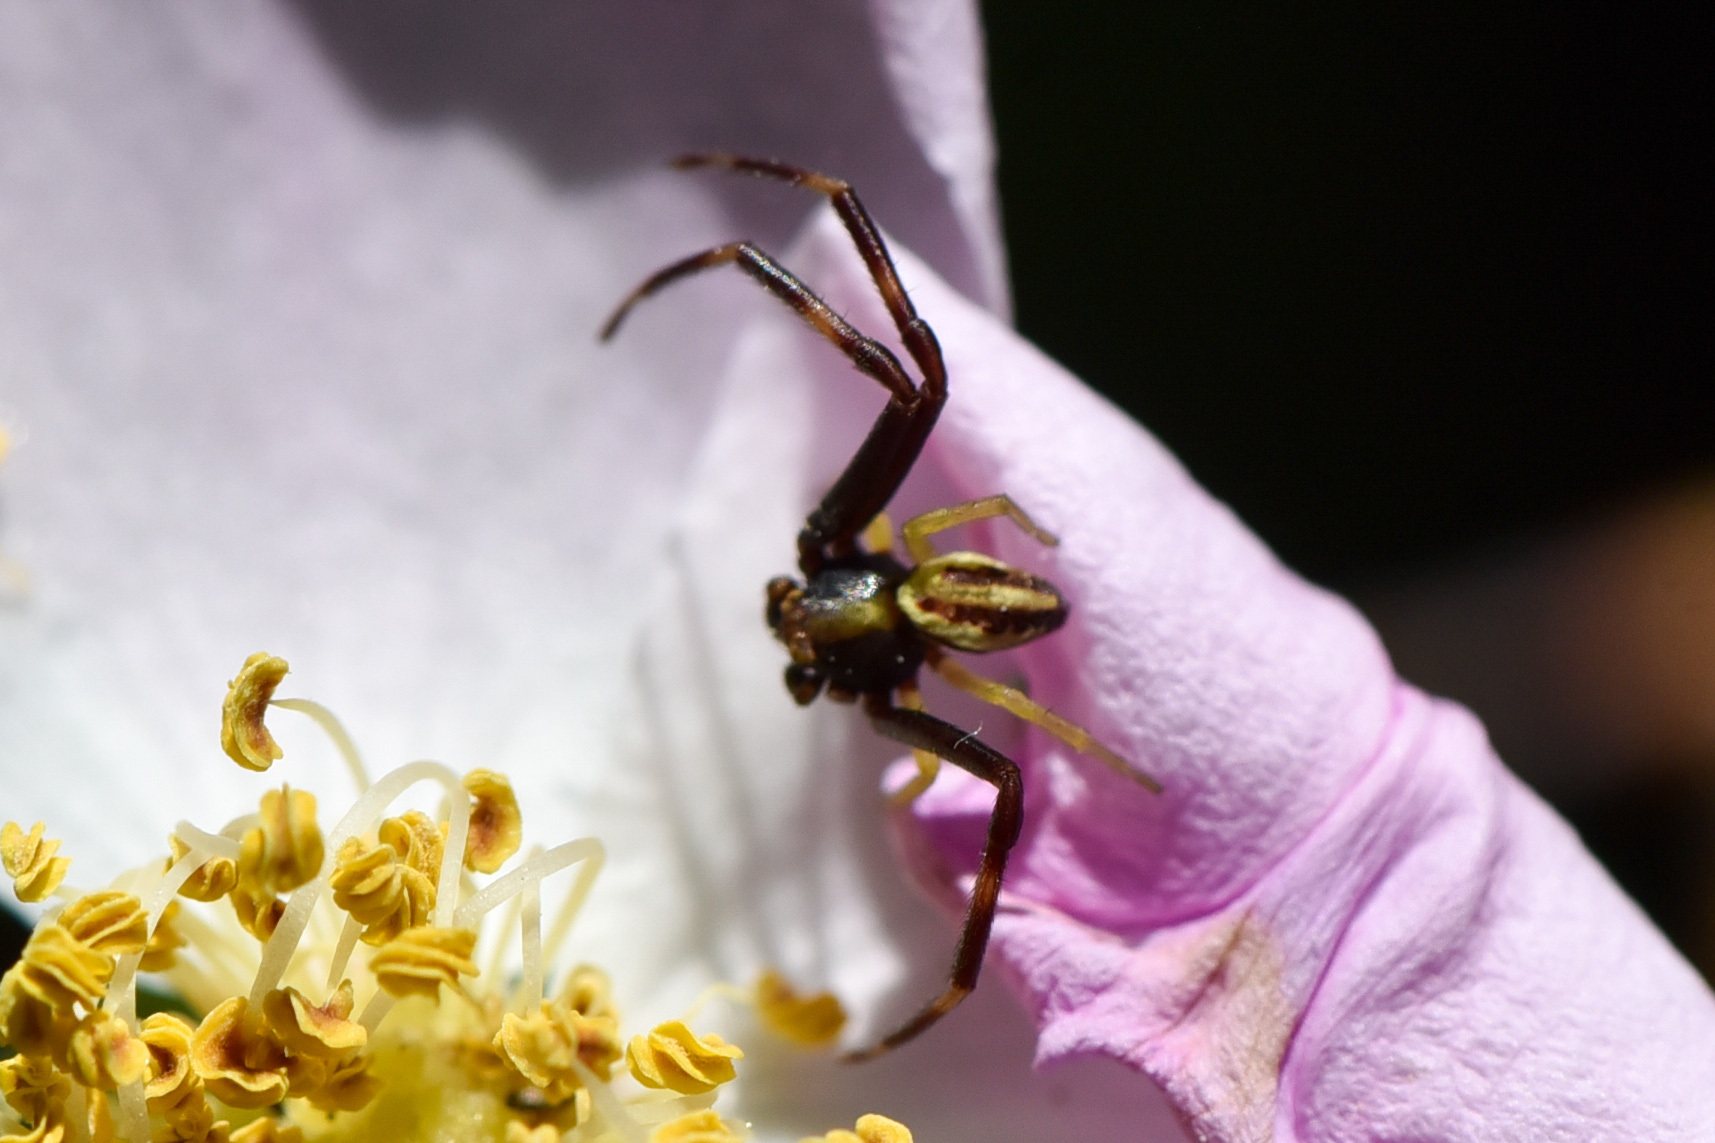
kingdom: Animalia
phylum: Arthropoda
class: Arachnida
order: Araneae
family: Thomisidae
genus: Misumena
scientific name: Misumena vatia
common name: Goldenrod crab spider
